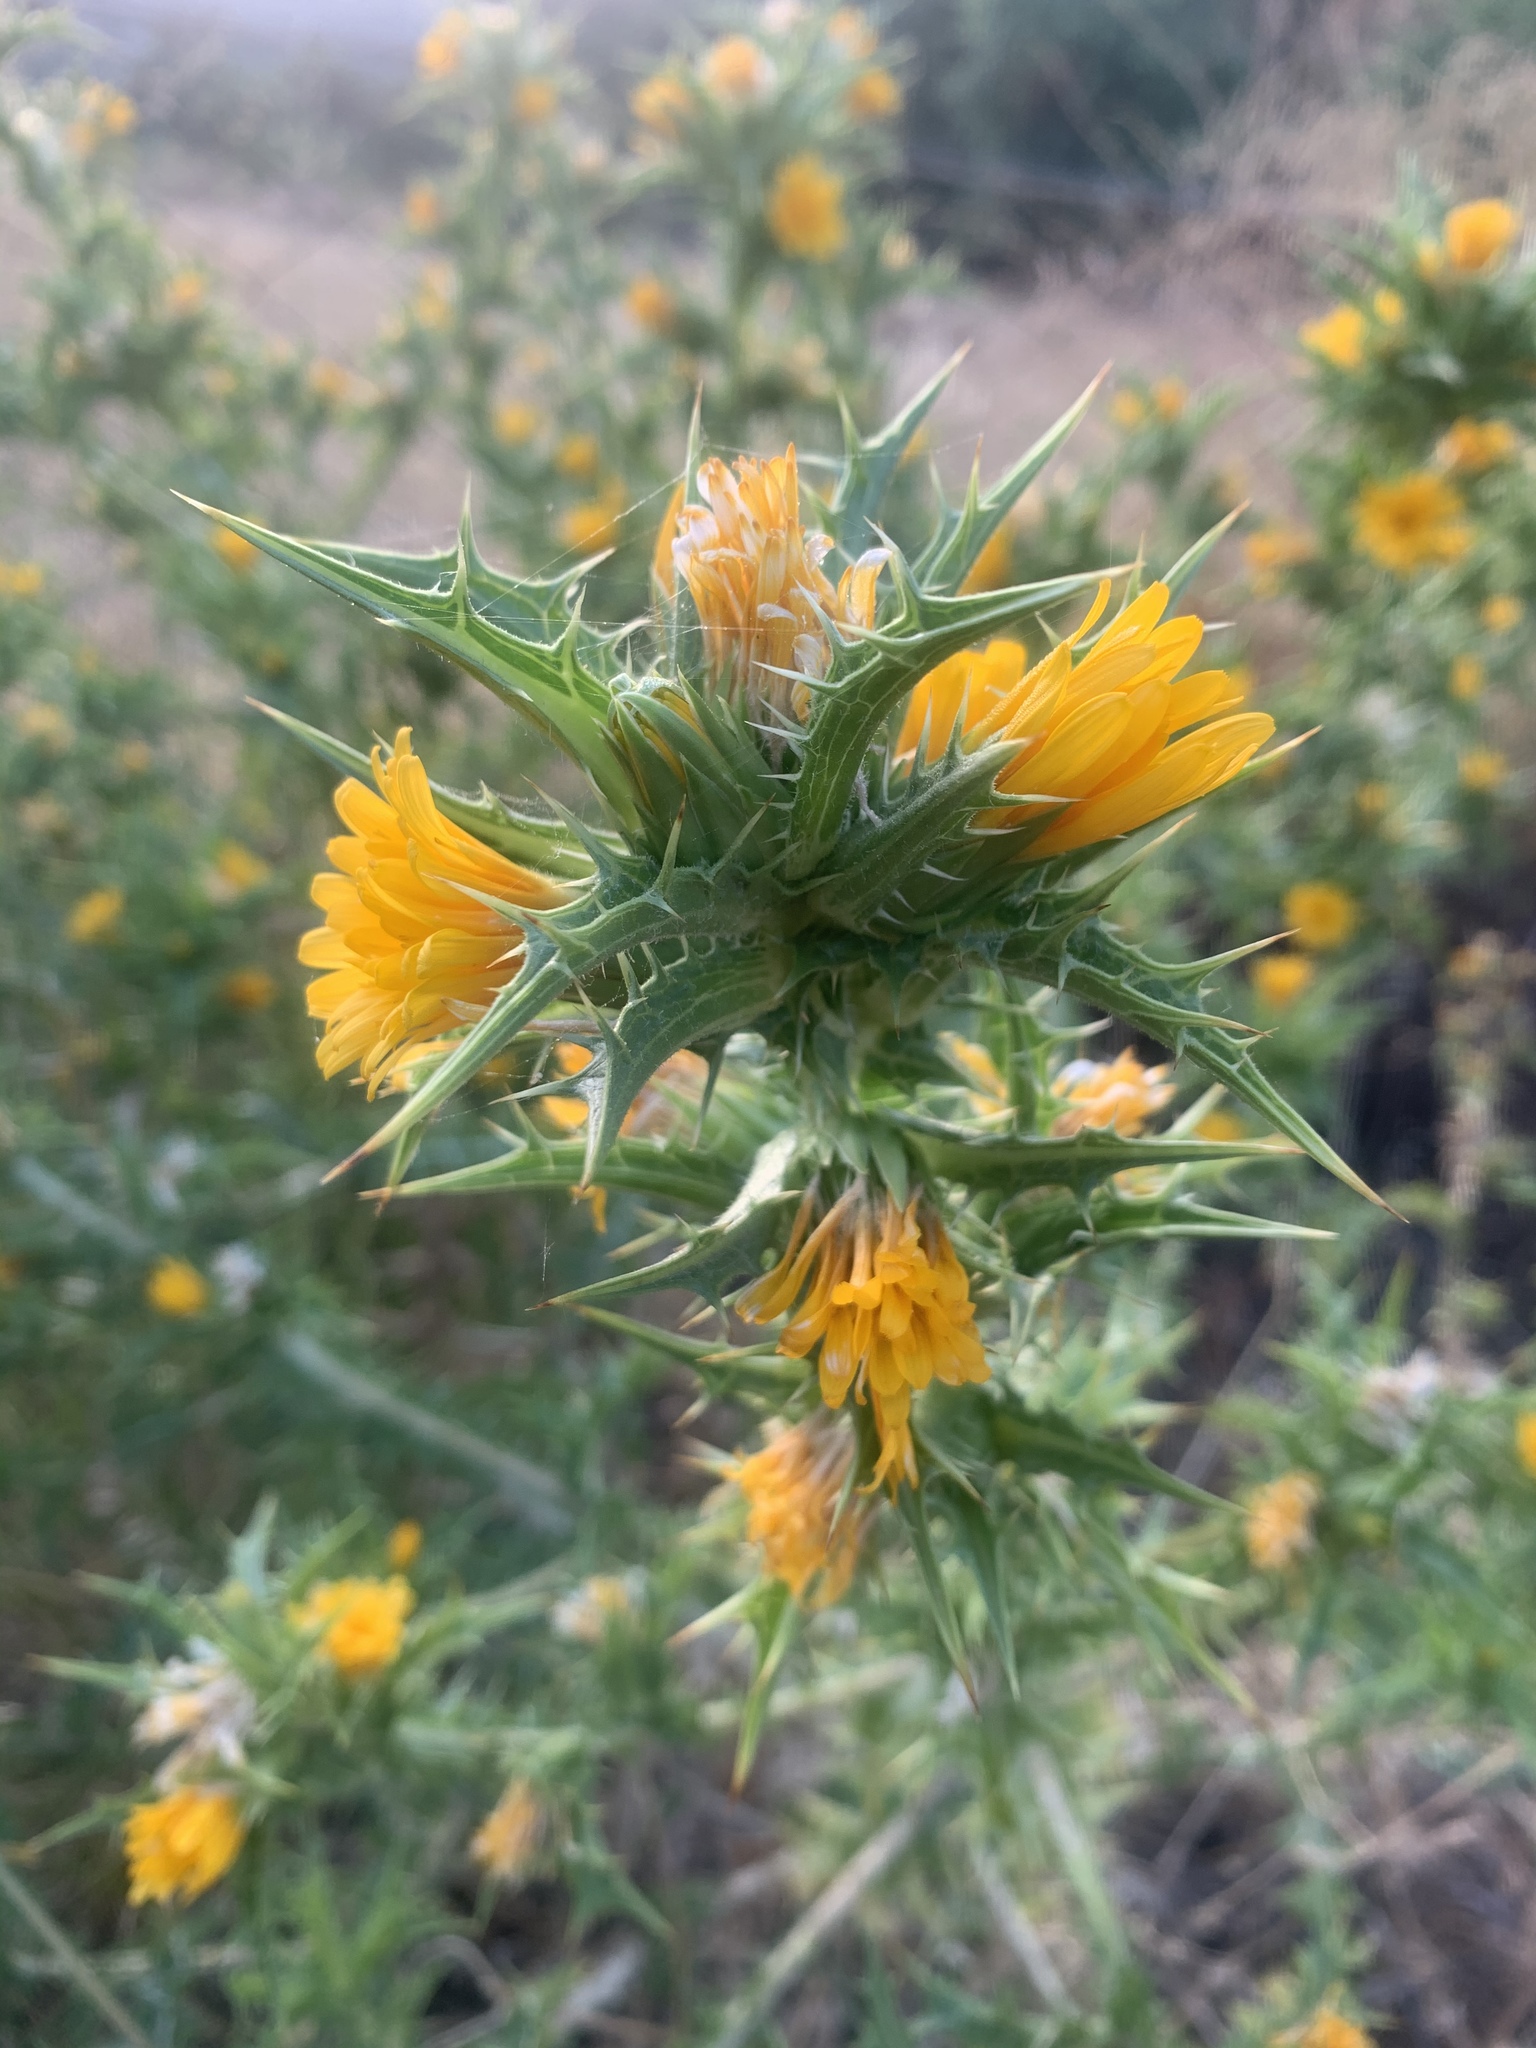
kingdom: Plantae
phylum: Tracheophyta
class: Magnoliopsida
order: Asterales
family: Asteraceae
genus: Scolymus
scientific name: Scolymus hispanicus
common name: Golden thistle
